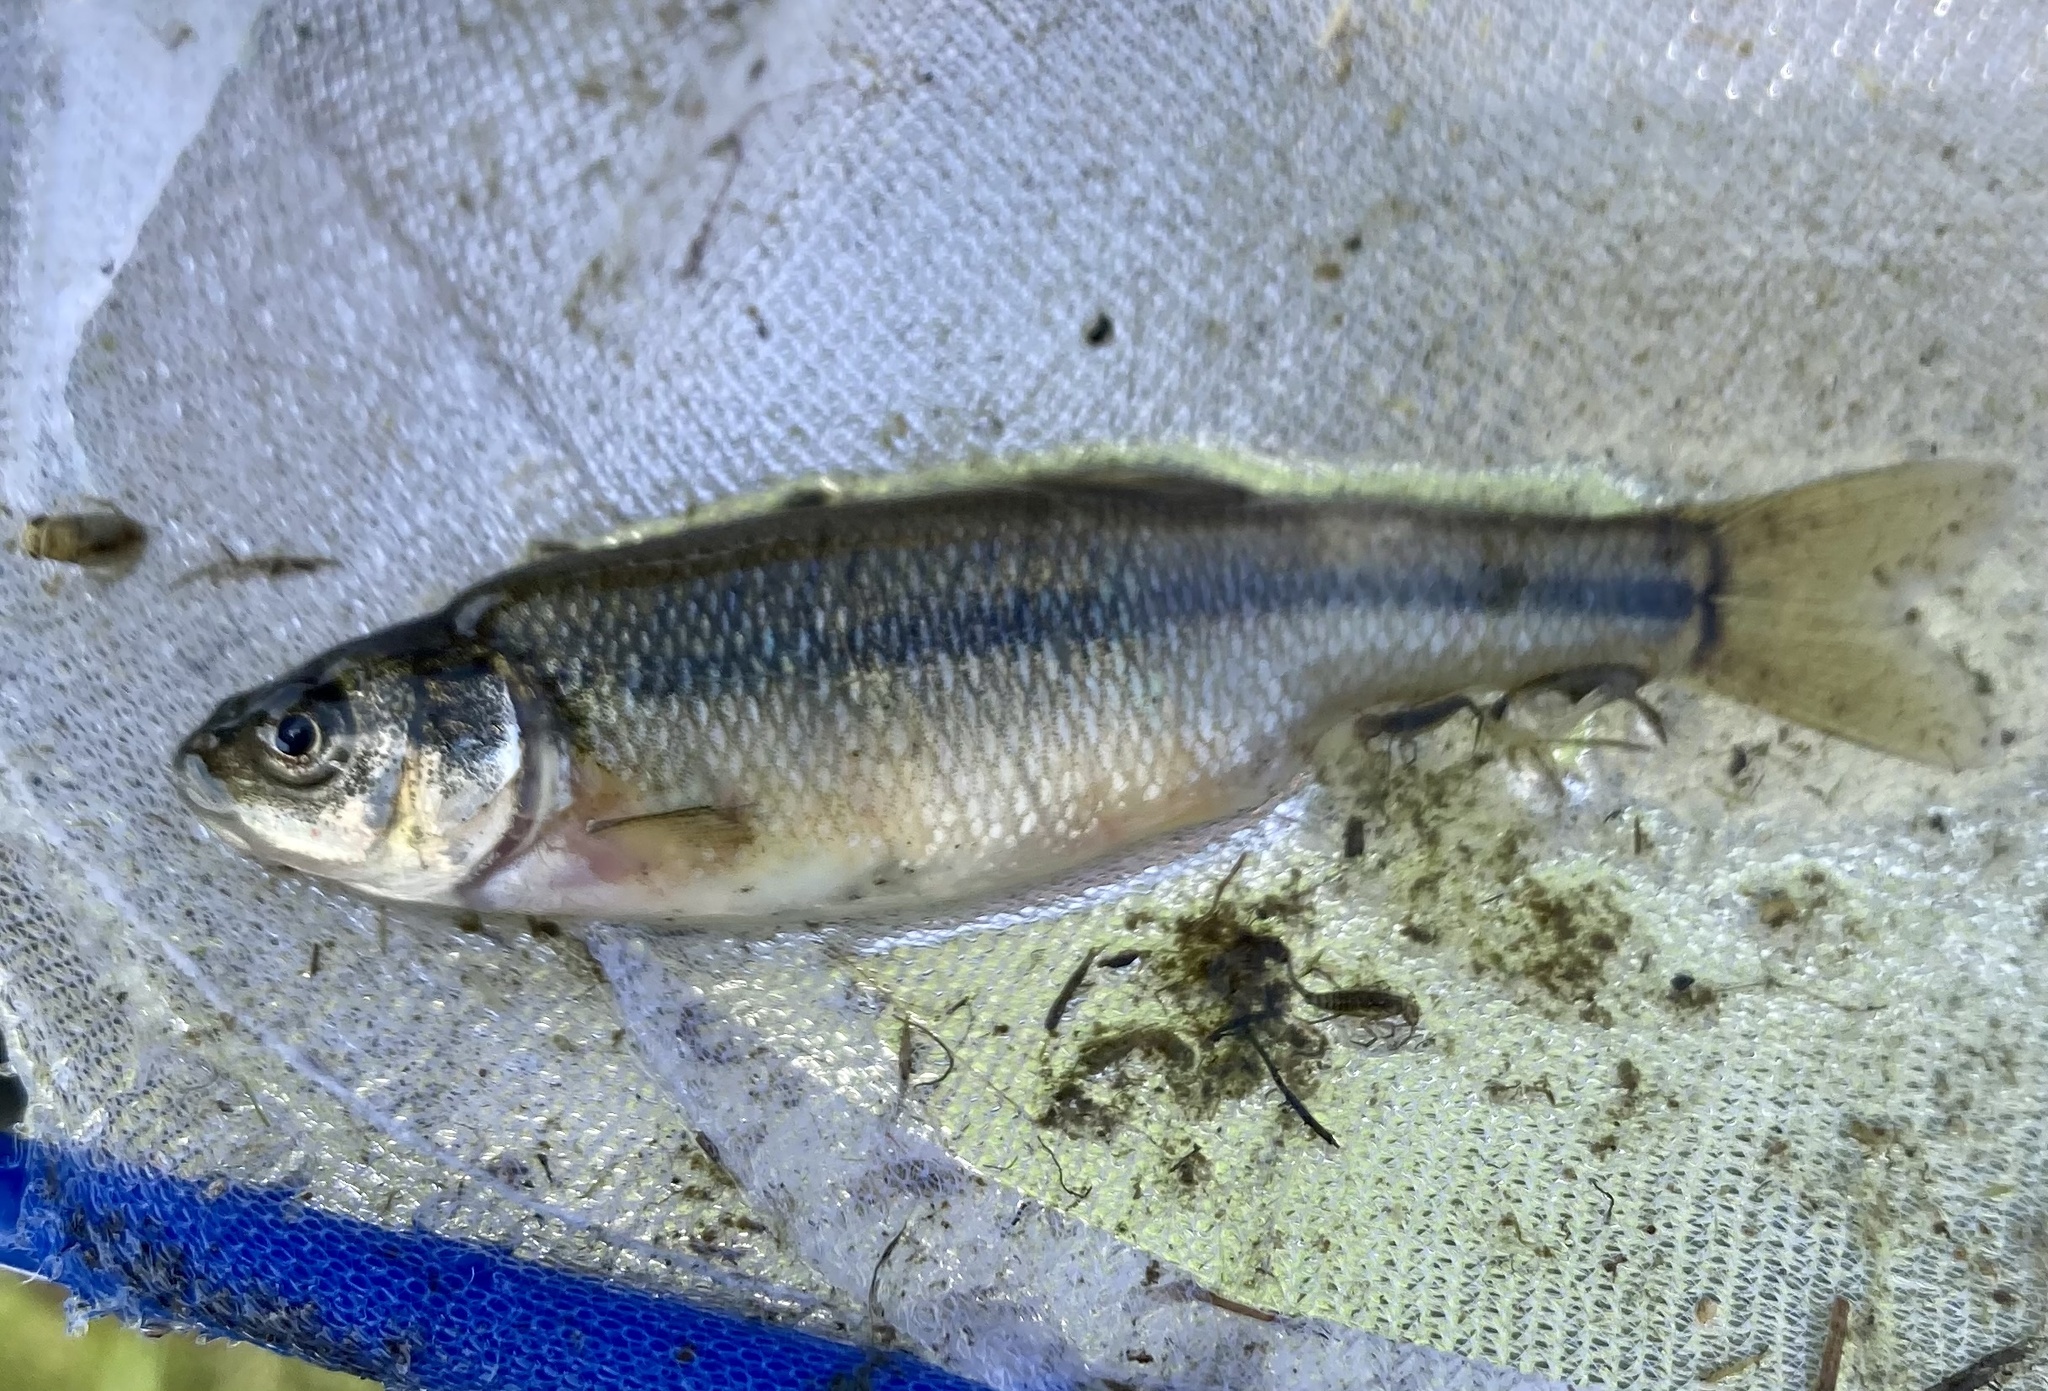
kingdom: Animalia
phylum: Chordata
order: Cypriniformes
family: Cyprinidae
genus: Pimephales
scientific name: Pimephales promelas
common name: Fathead minnow
